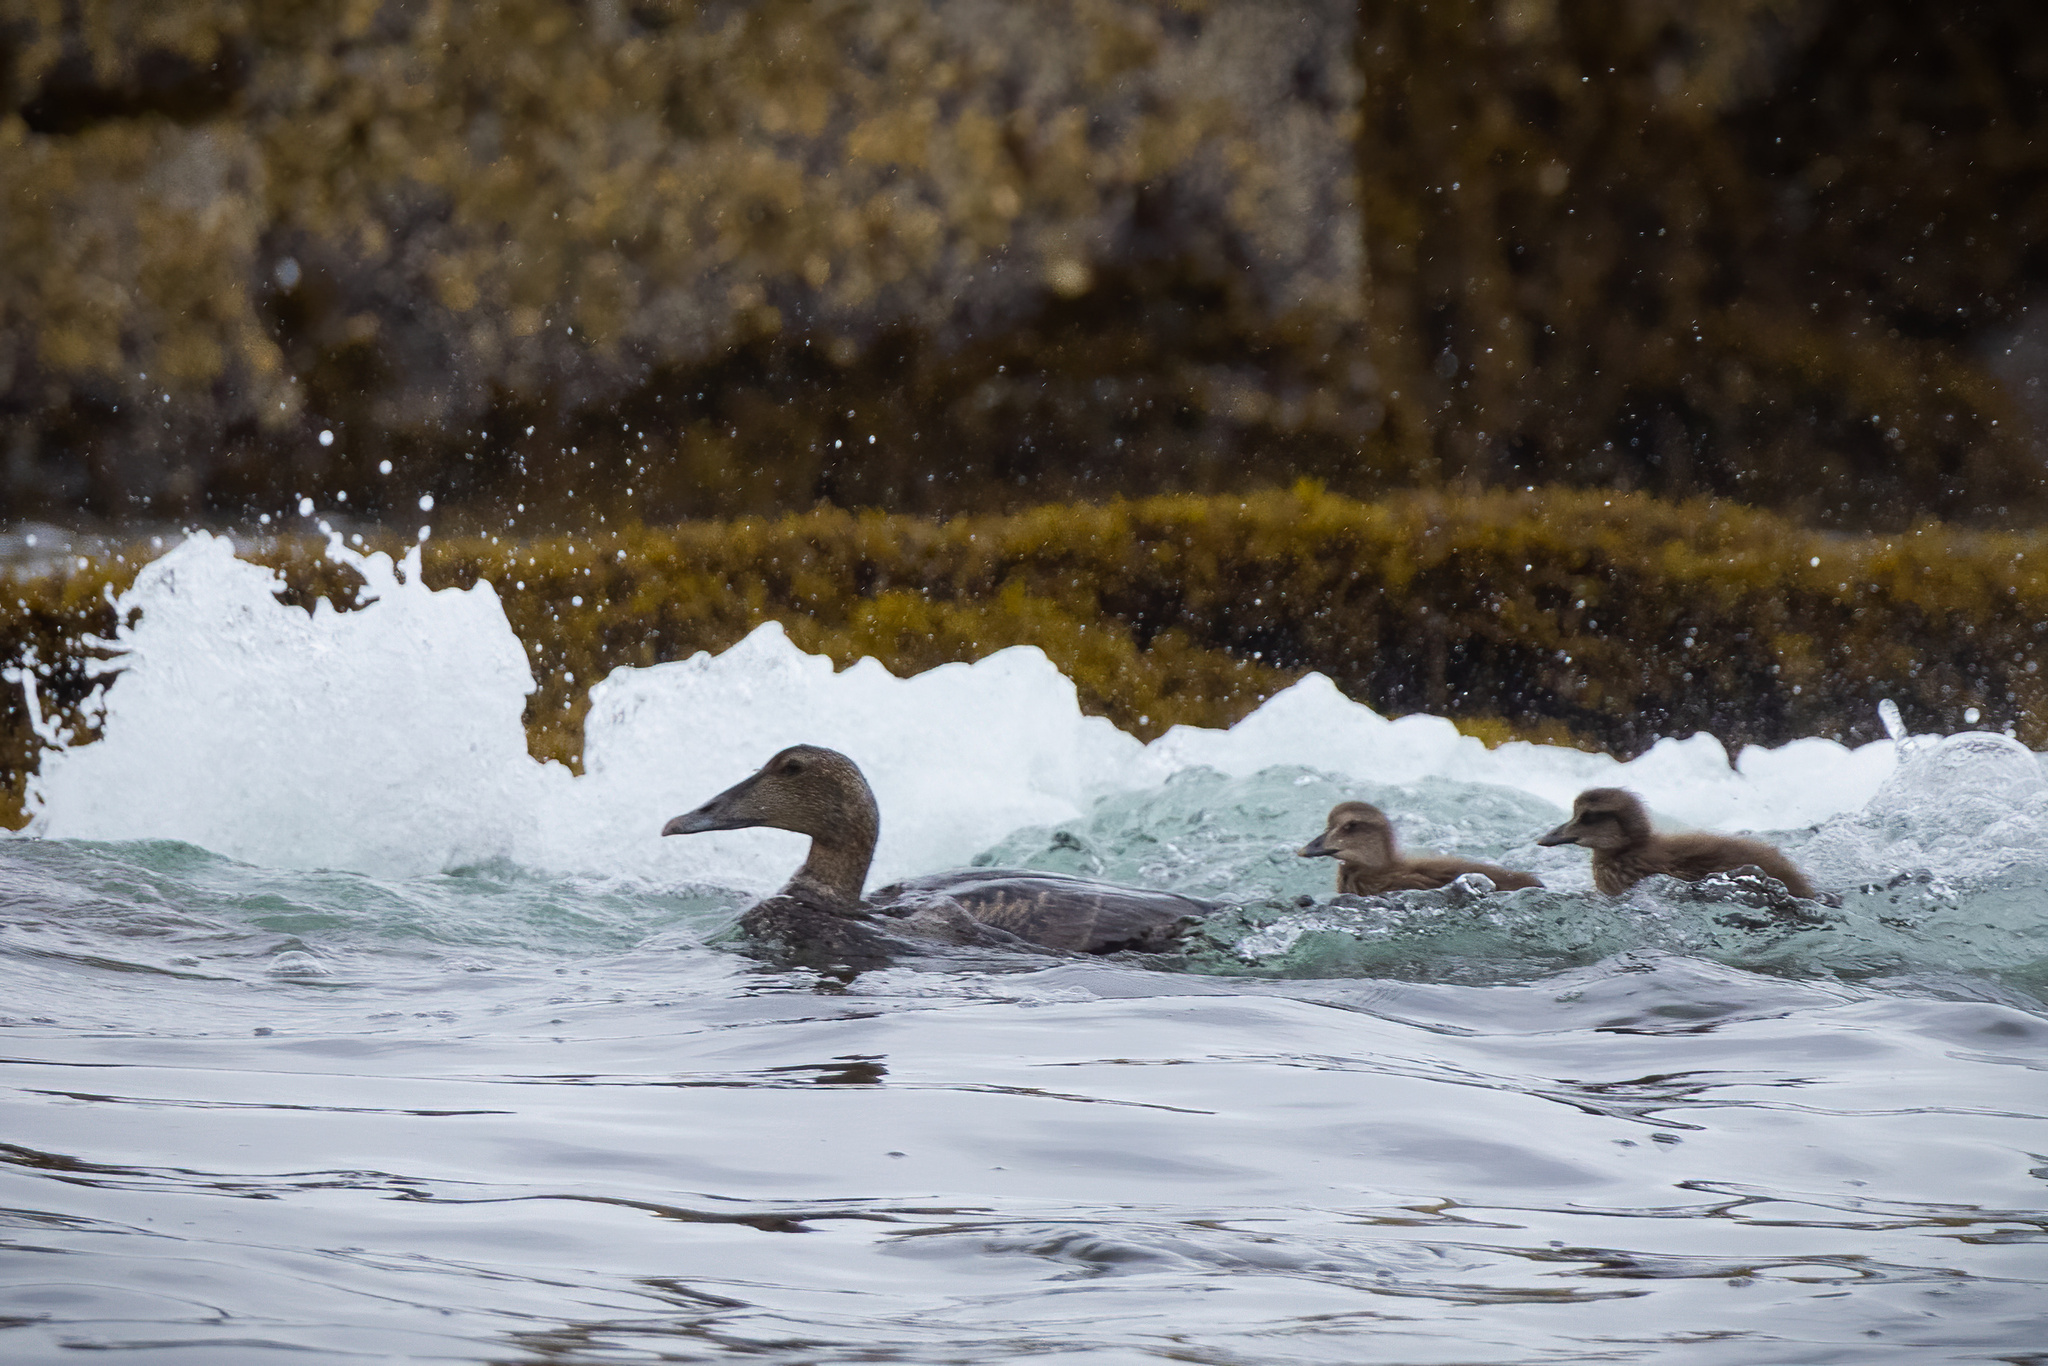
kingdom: Animalia
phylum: Chordata
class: Aves
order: Anseriformes
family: Anatidae
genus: Somateria
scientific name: Somateria mollissima
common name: Common eider
